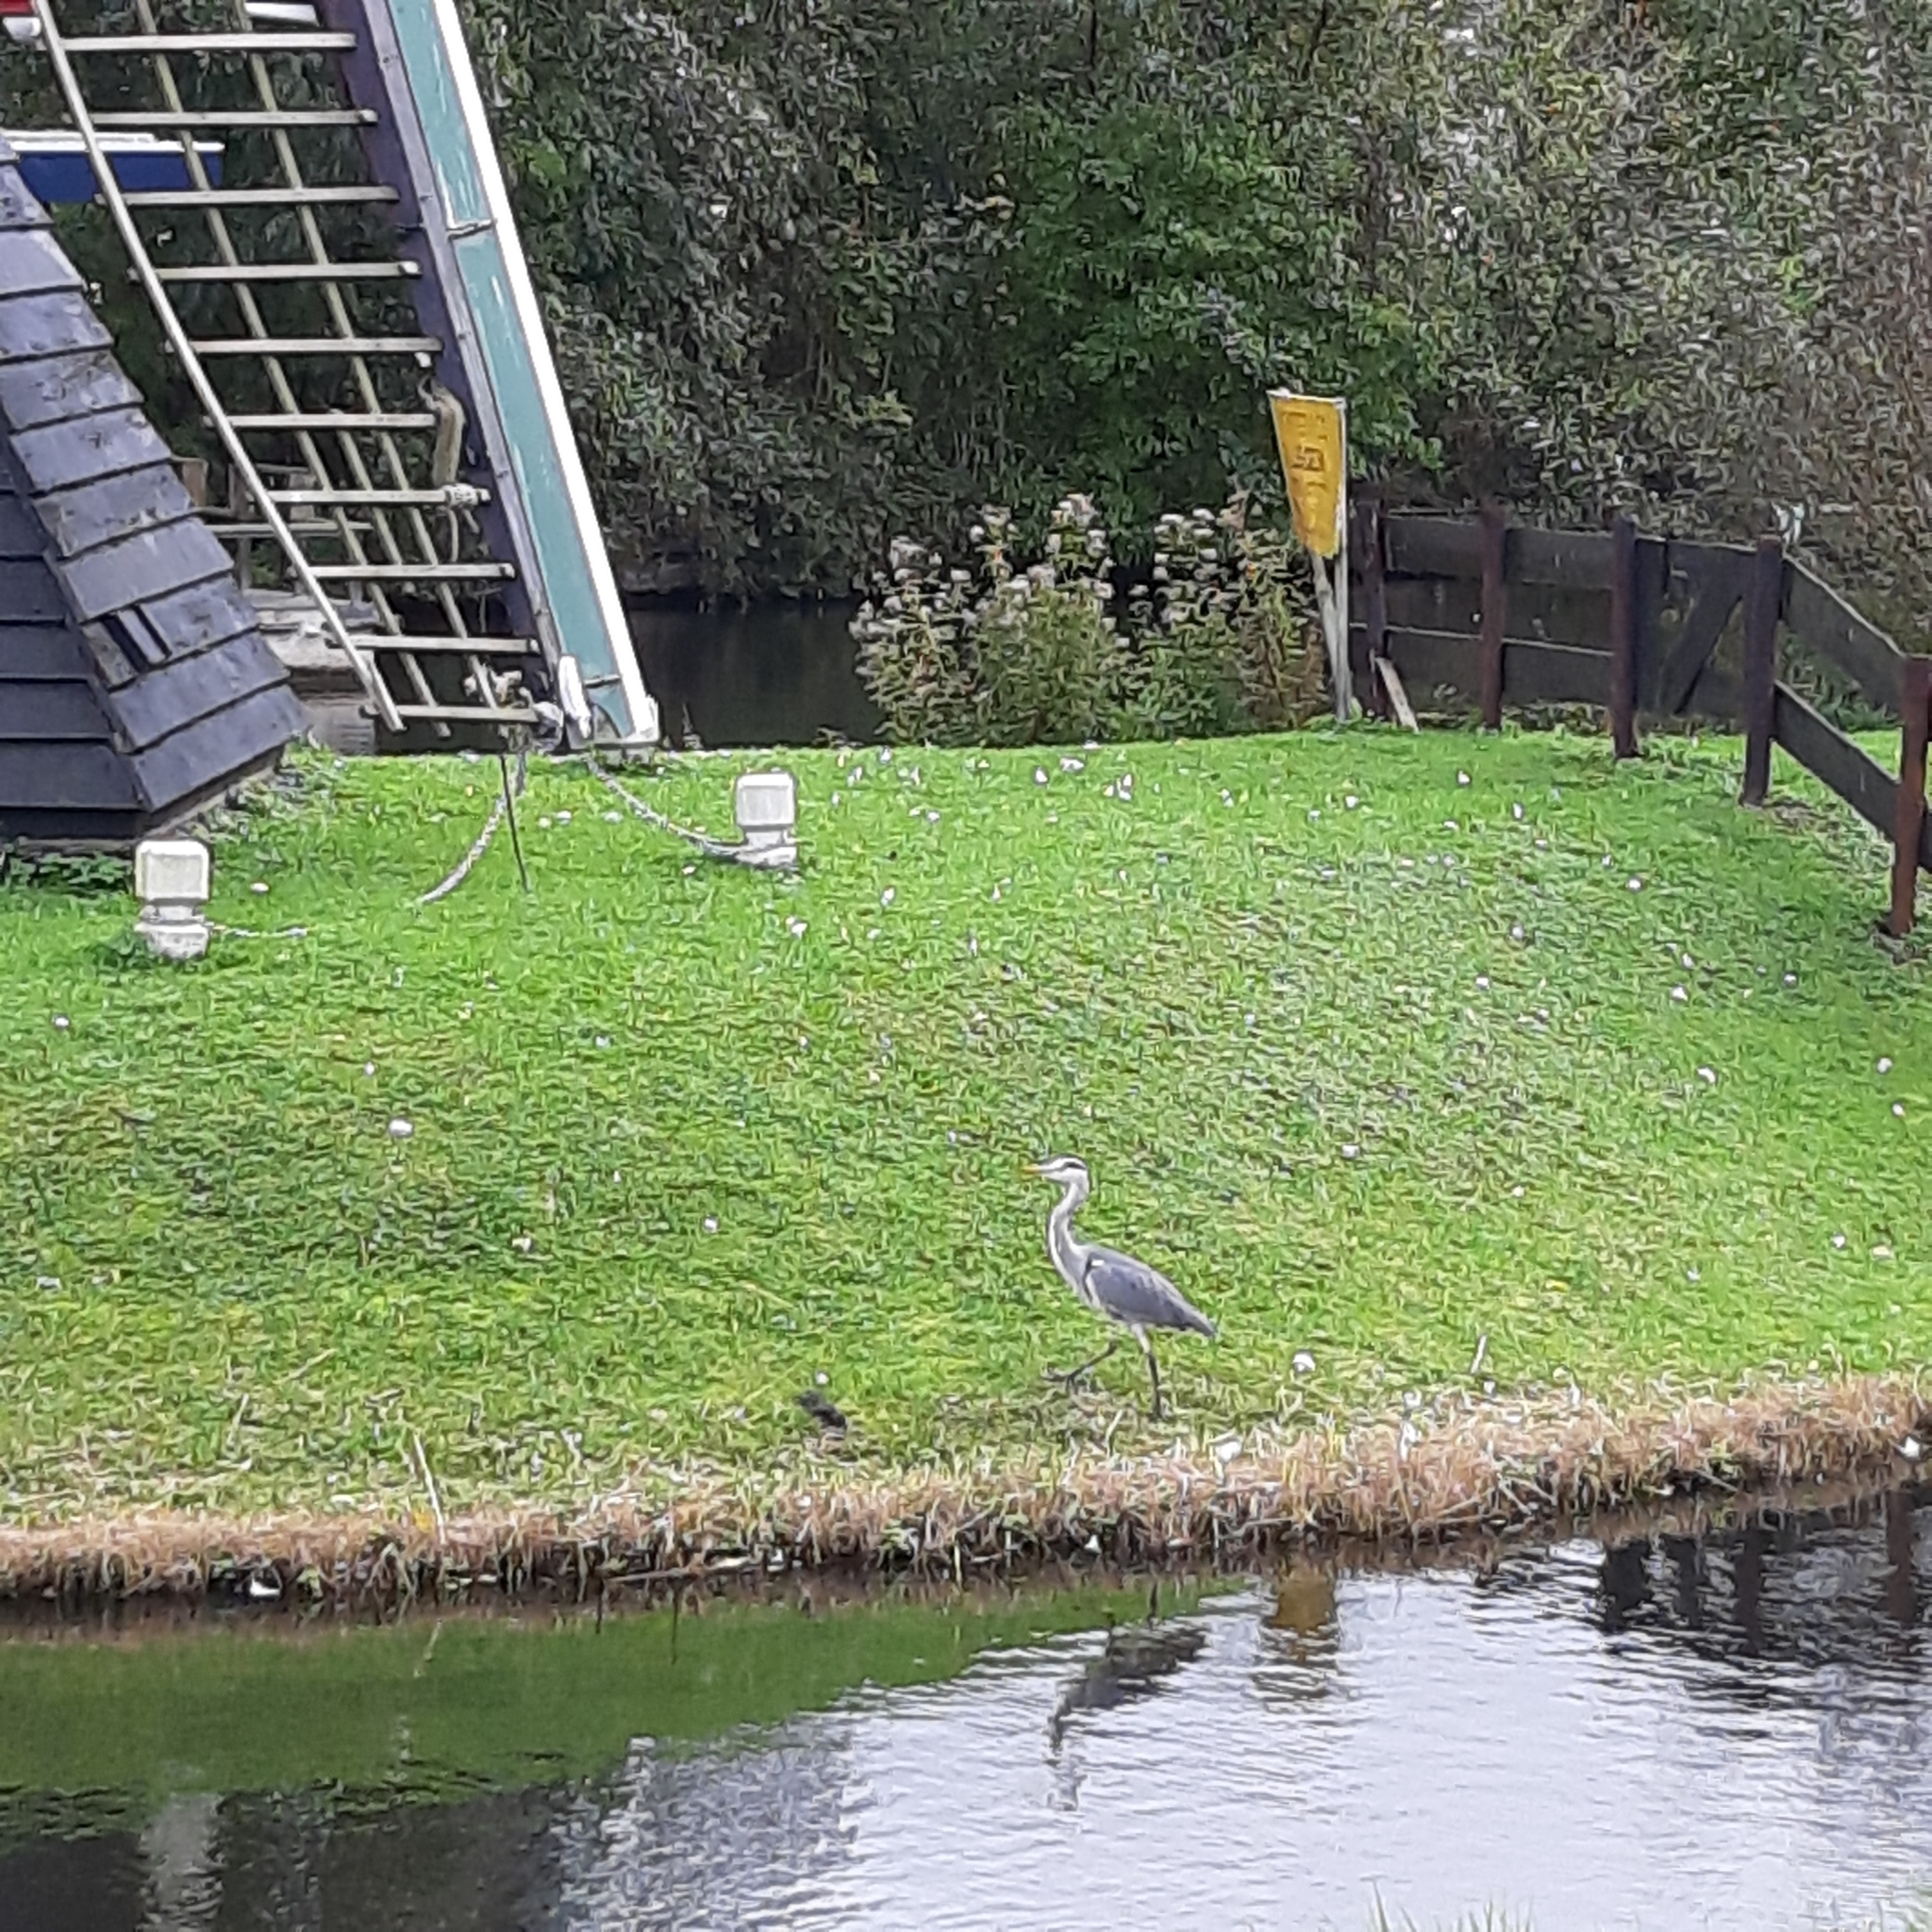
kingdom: Animalia
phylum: Chordata
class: Aves
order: Pelecaniformes
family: Ardeidae
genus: Ardea
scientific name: Ardea cinerea
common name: Grey heron
